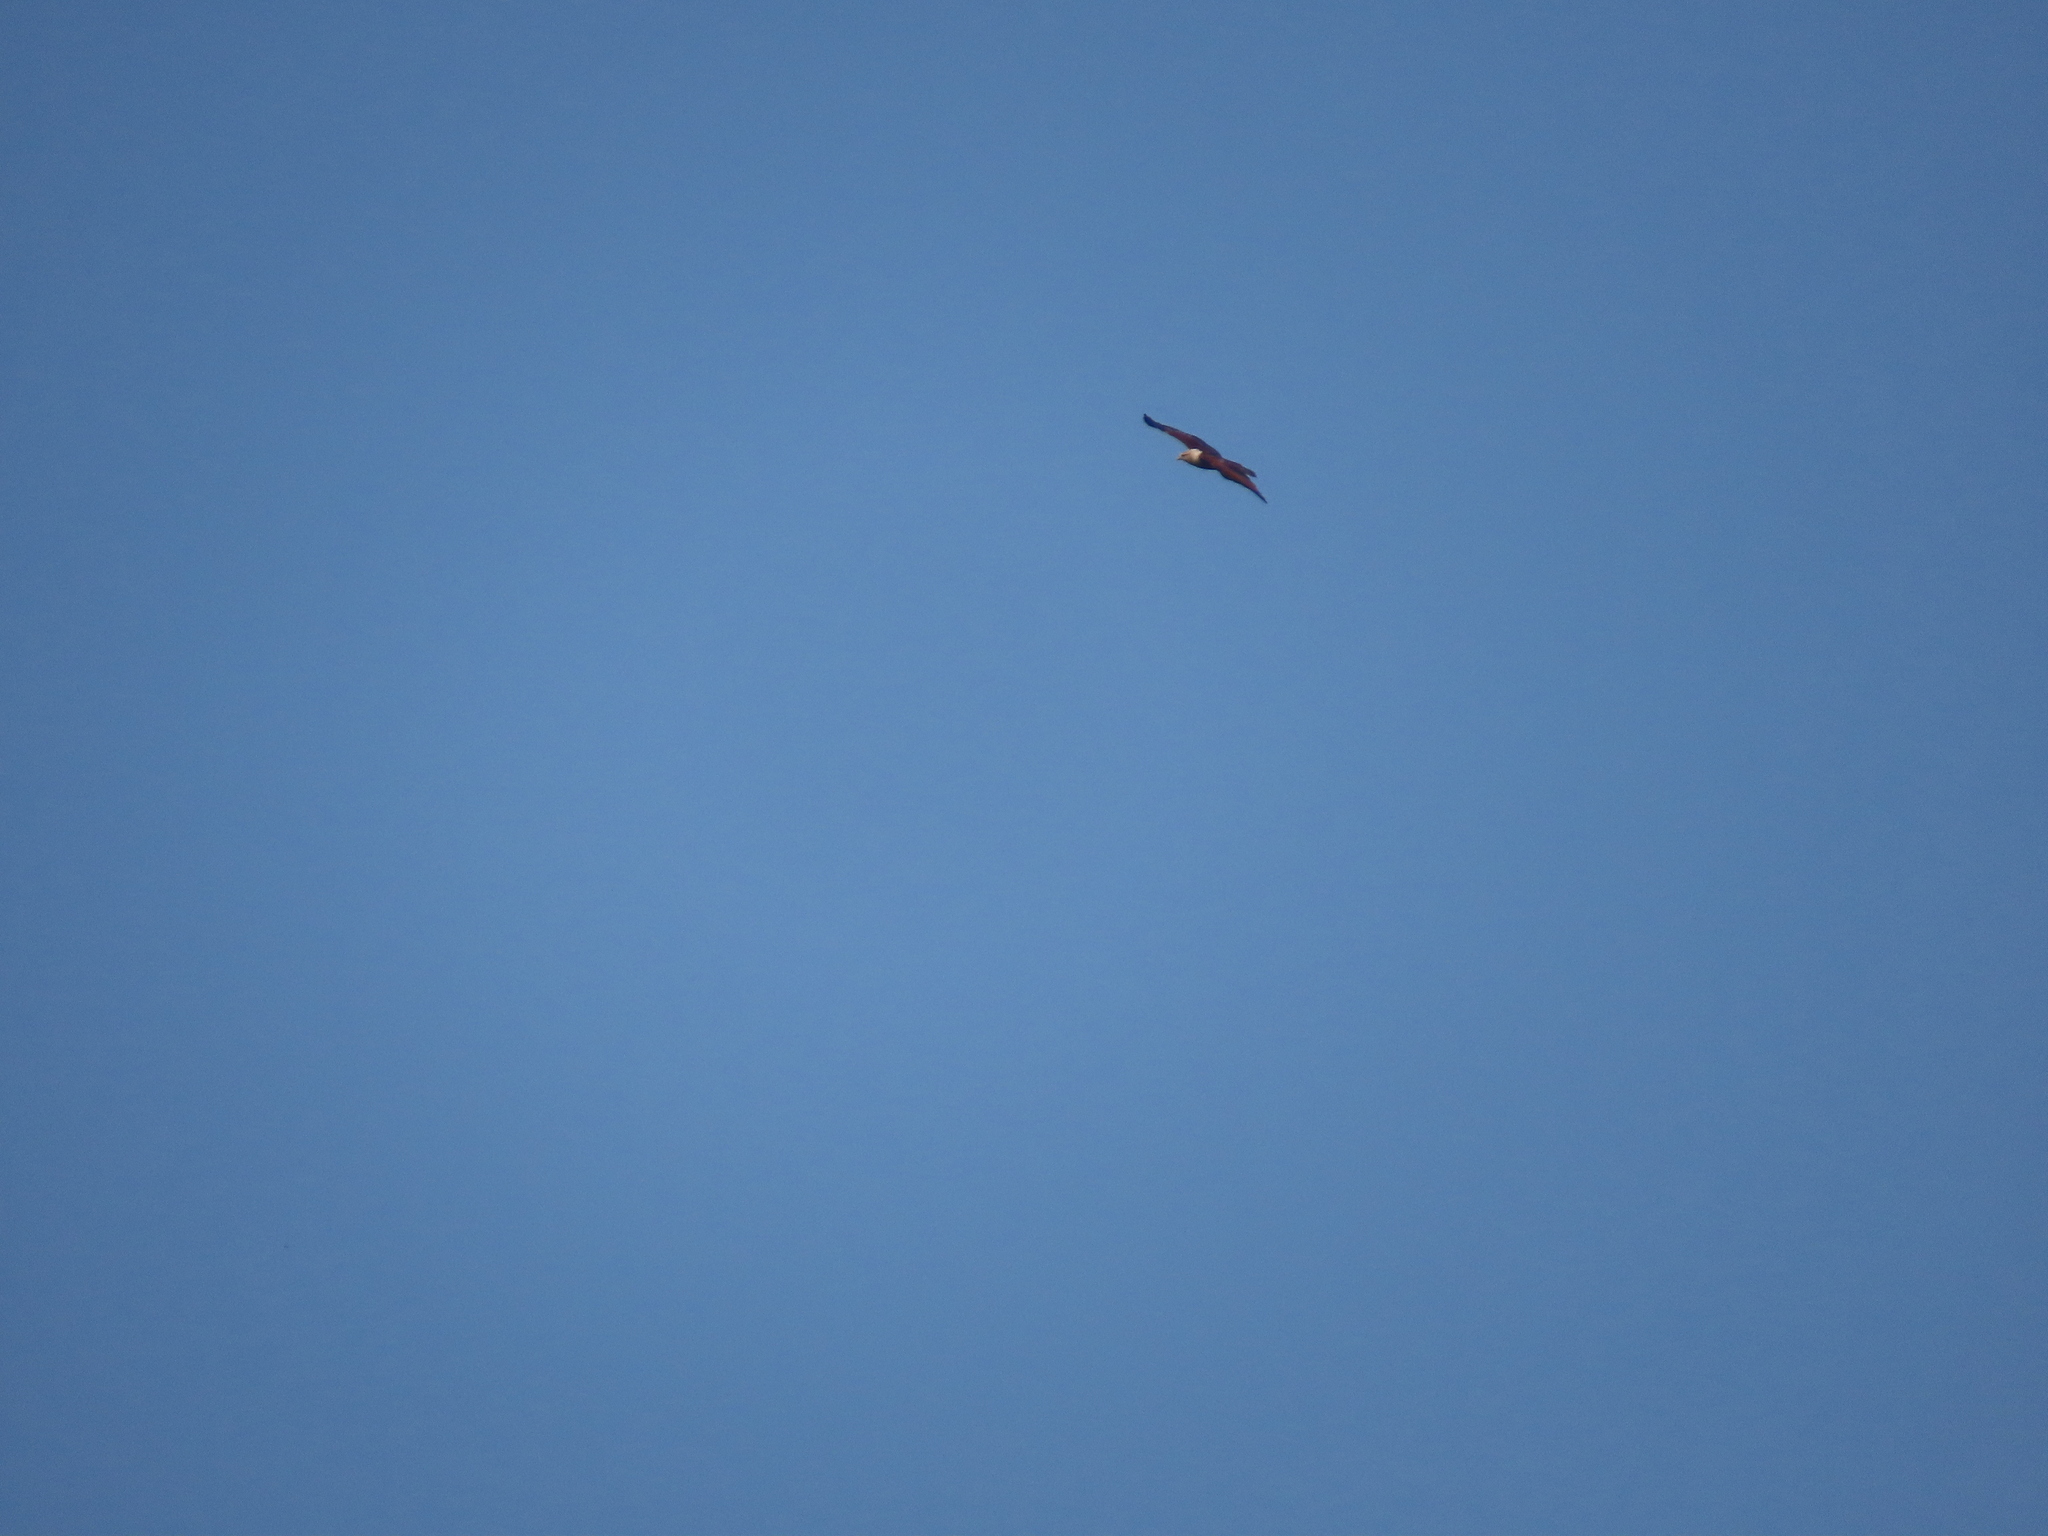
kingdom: Animalia
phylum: Chordata
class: Aves
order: Accipitriformes
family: Accipitridae
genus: Haliastur
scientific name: Haliastur indus
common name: Brahminy kite
